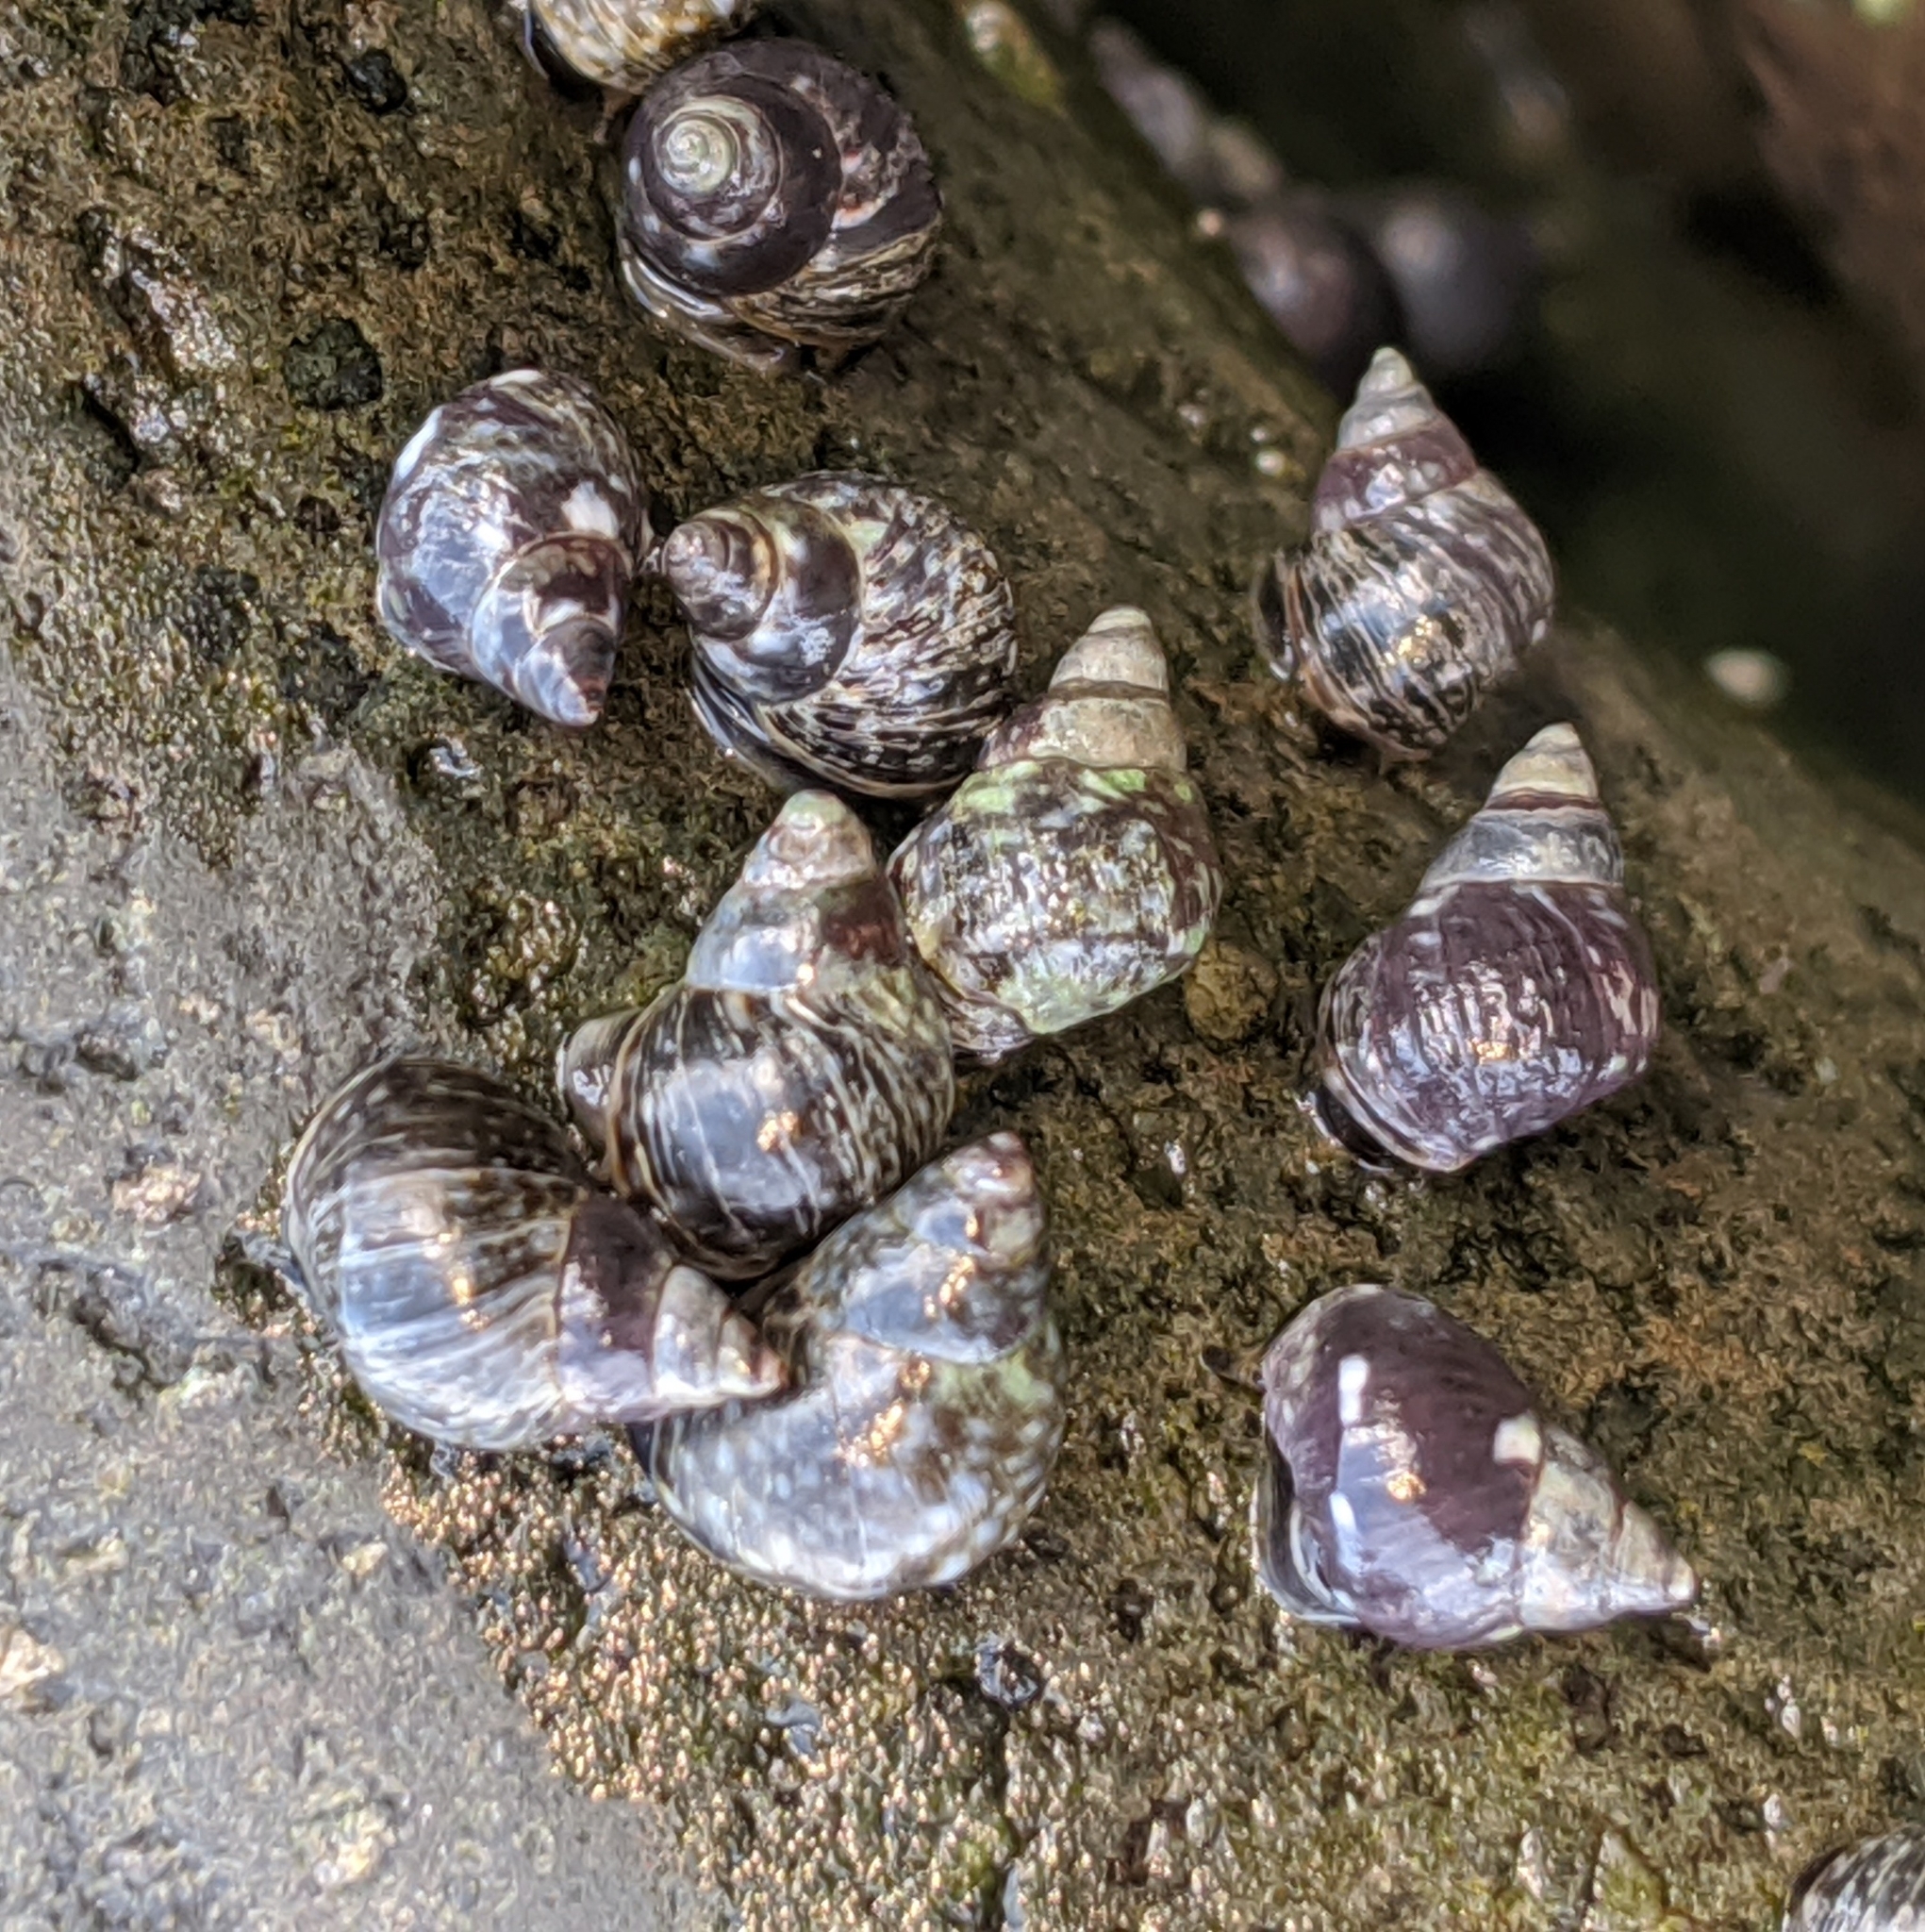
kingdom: Animalia
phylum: Mollusca
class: Gastropoda
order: Littorinimorpha
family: Littorinidae
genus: Littorina
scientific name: Littorina scutulata
